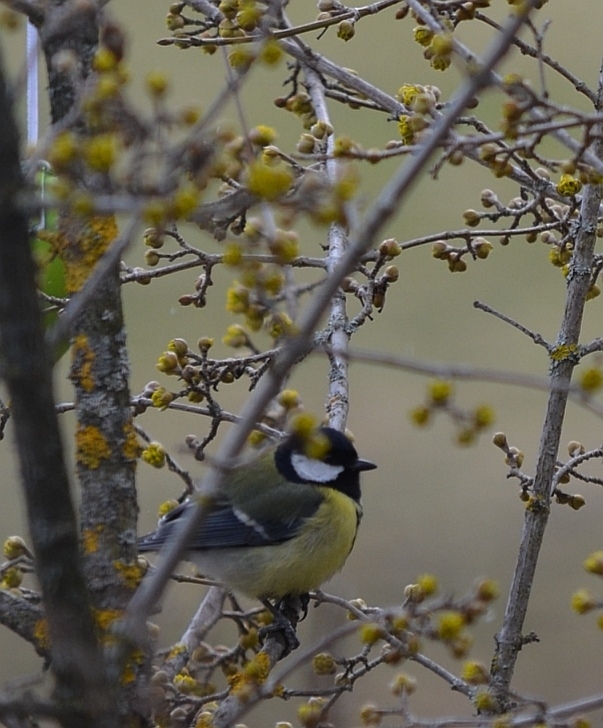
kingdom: Animalia
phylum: Chordata
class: Aves
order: Passeriformes
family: Paridae
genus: Parus
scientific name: Parus major
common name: Great tit
